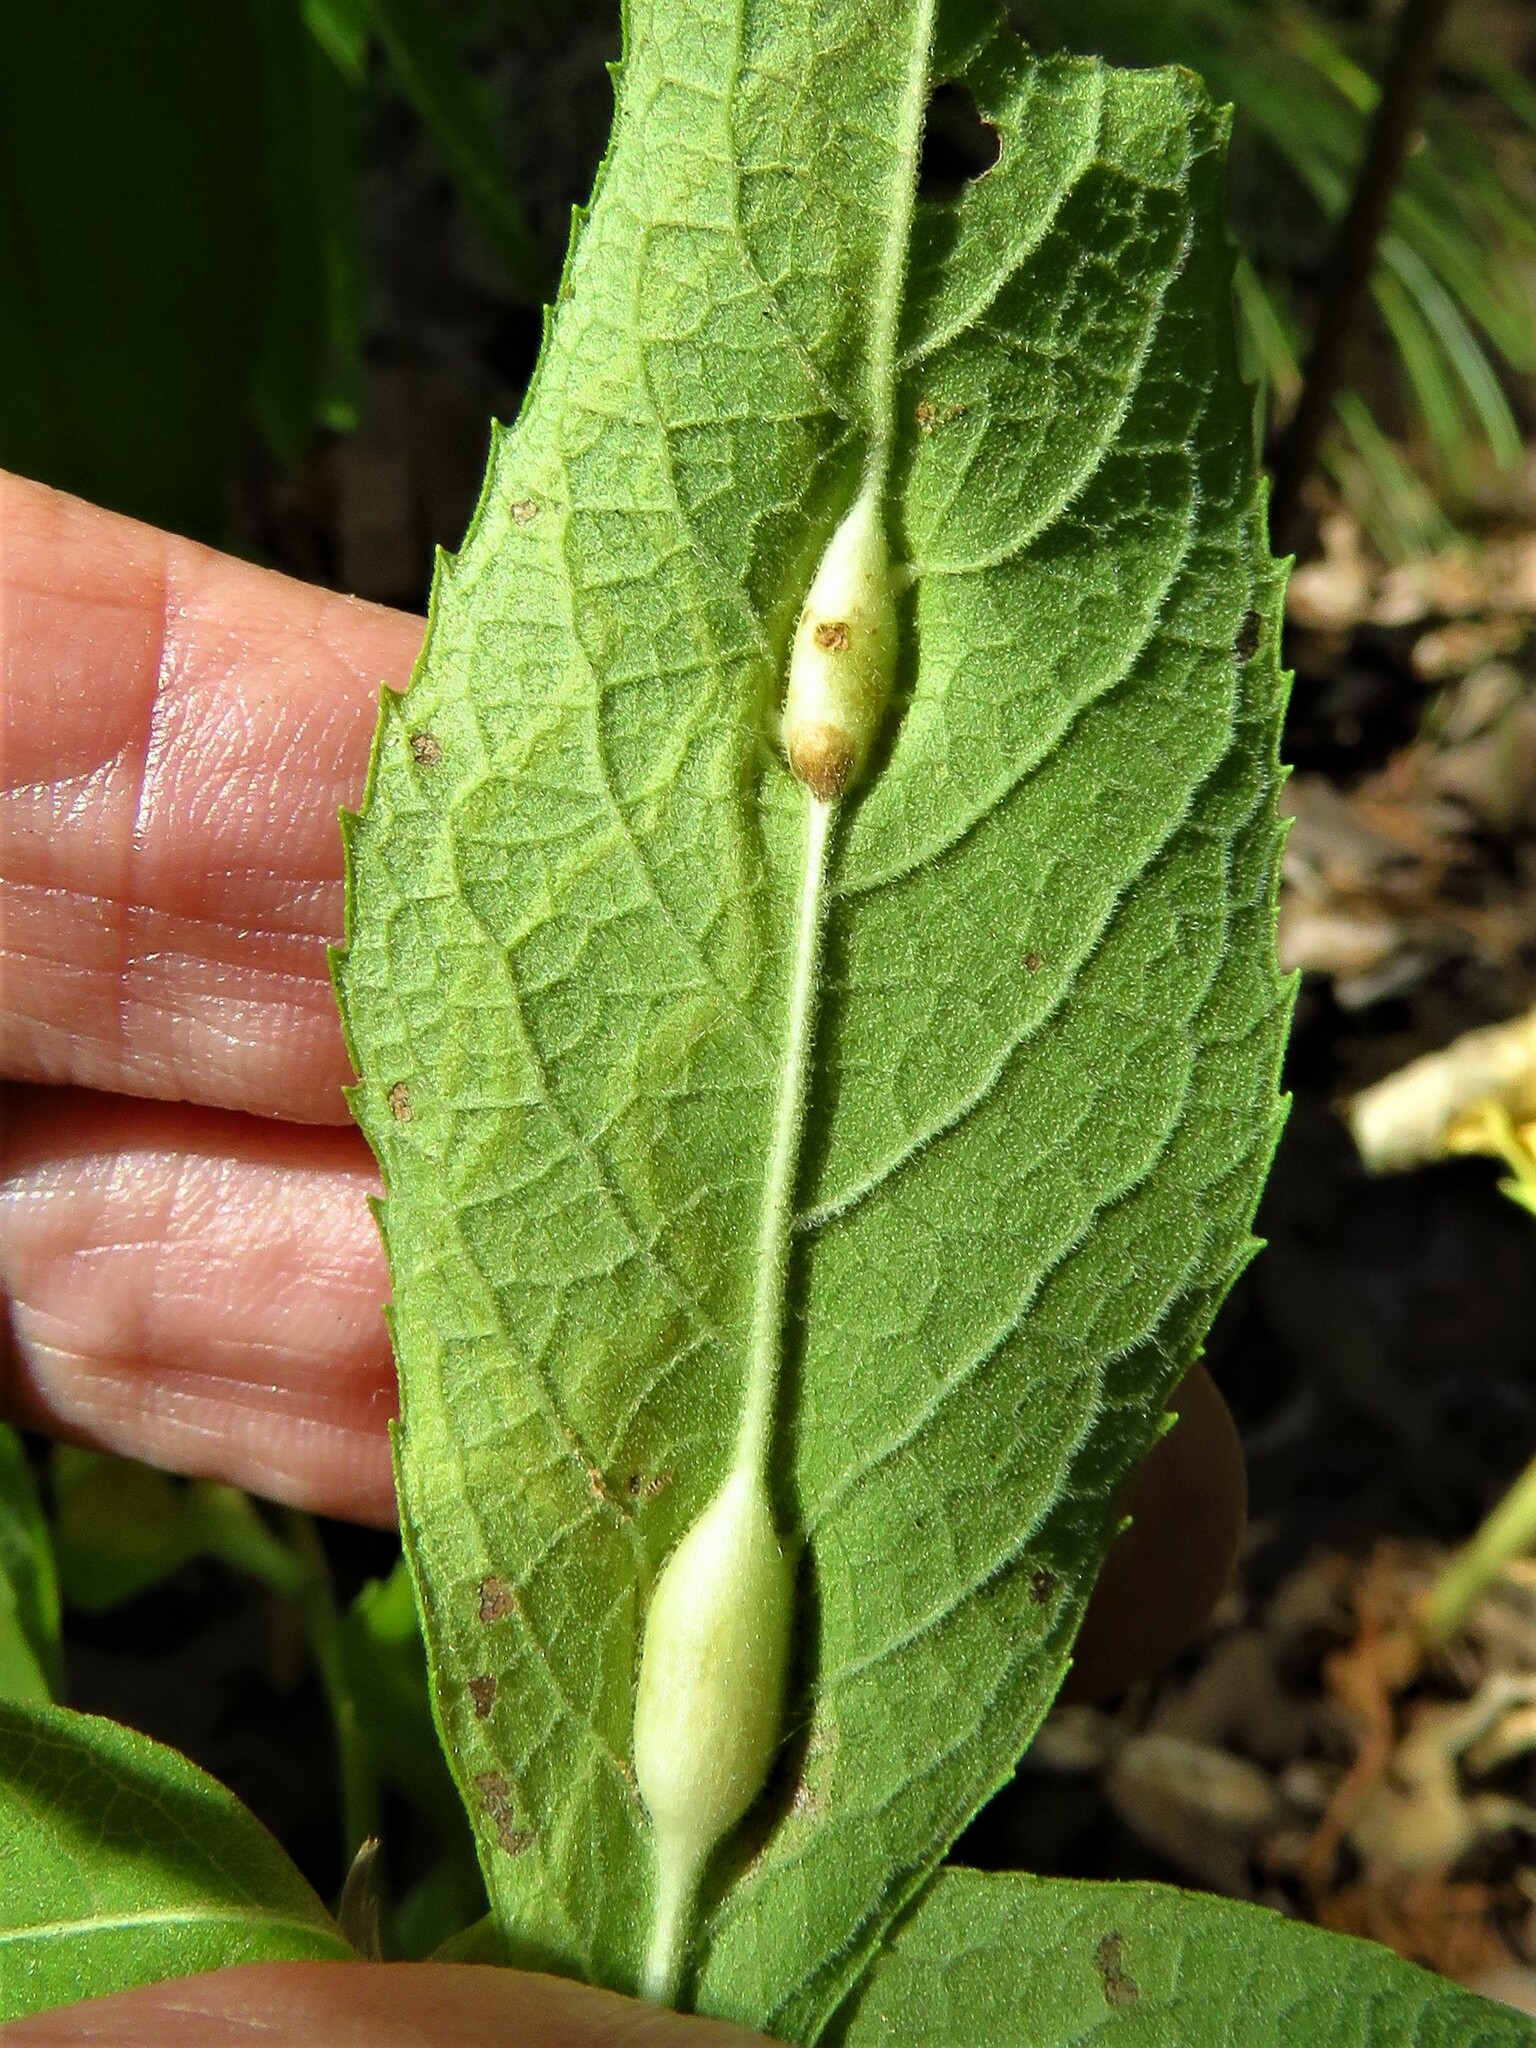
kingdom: Animalia
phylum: Arthropoda
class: Insecta
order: Diptera
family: Cecidomyiidae
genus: Neolasioptera
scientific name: Neolasioptera vernoniae
